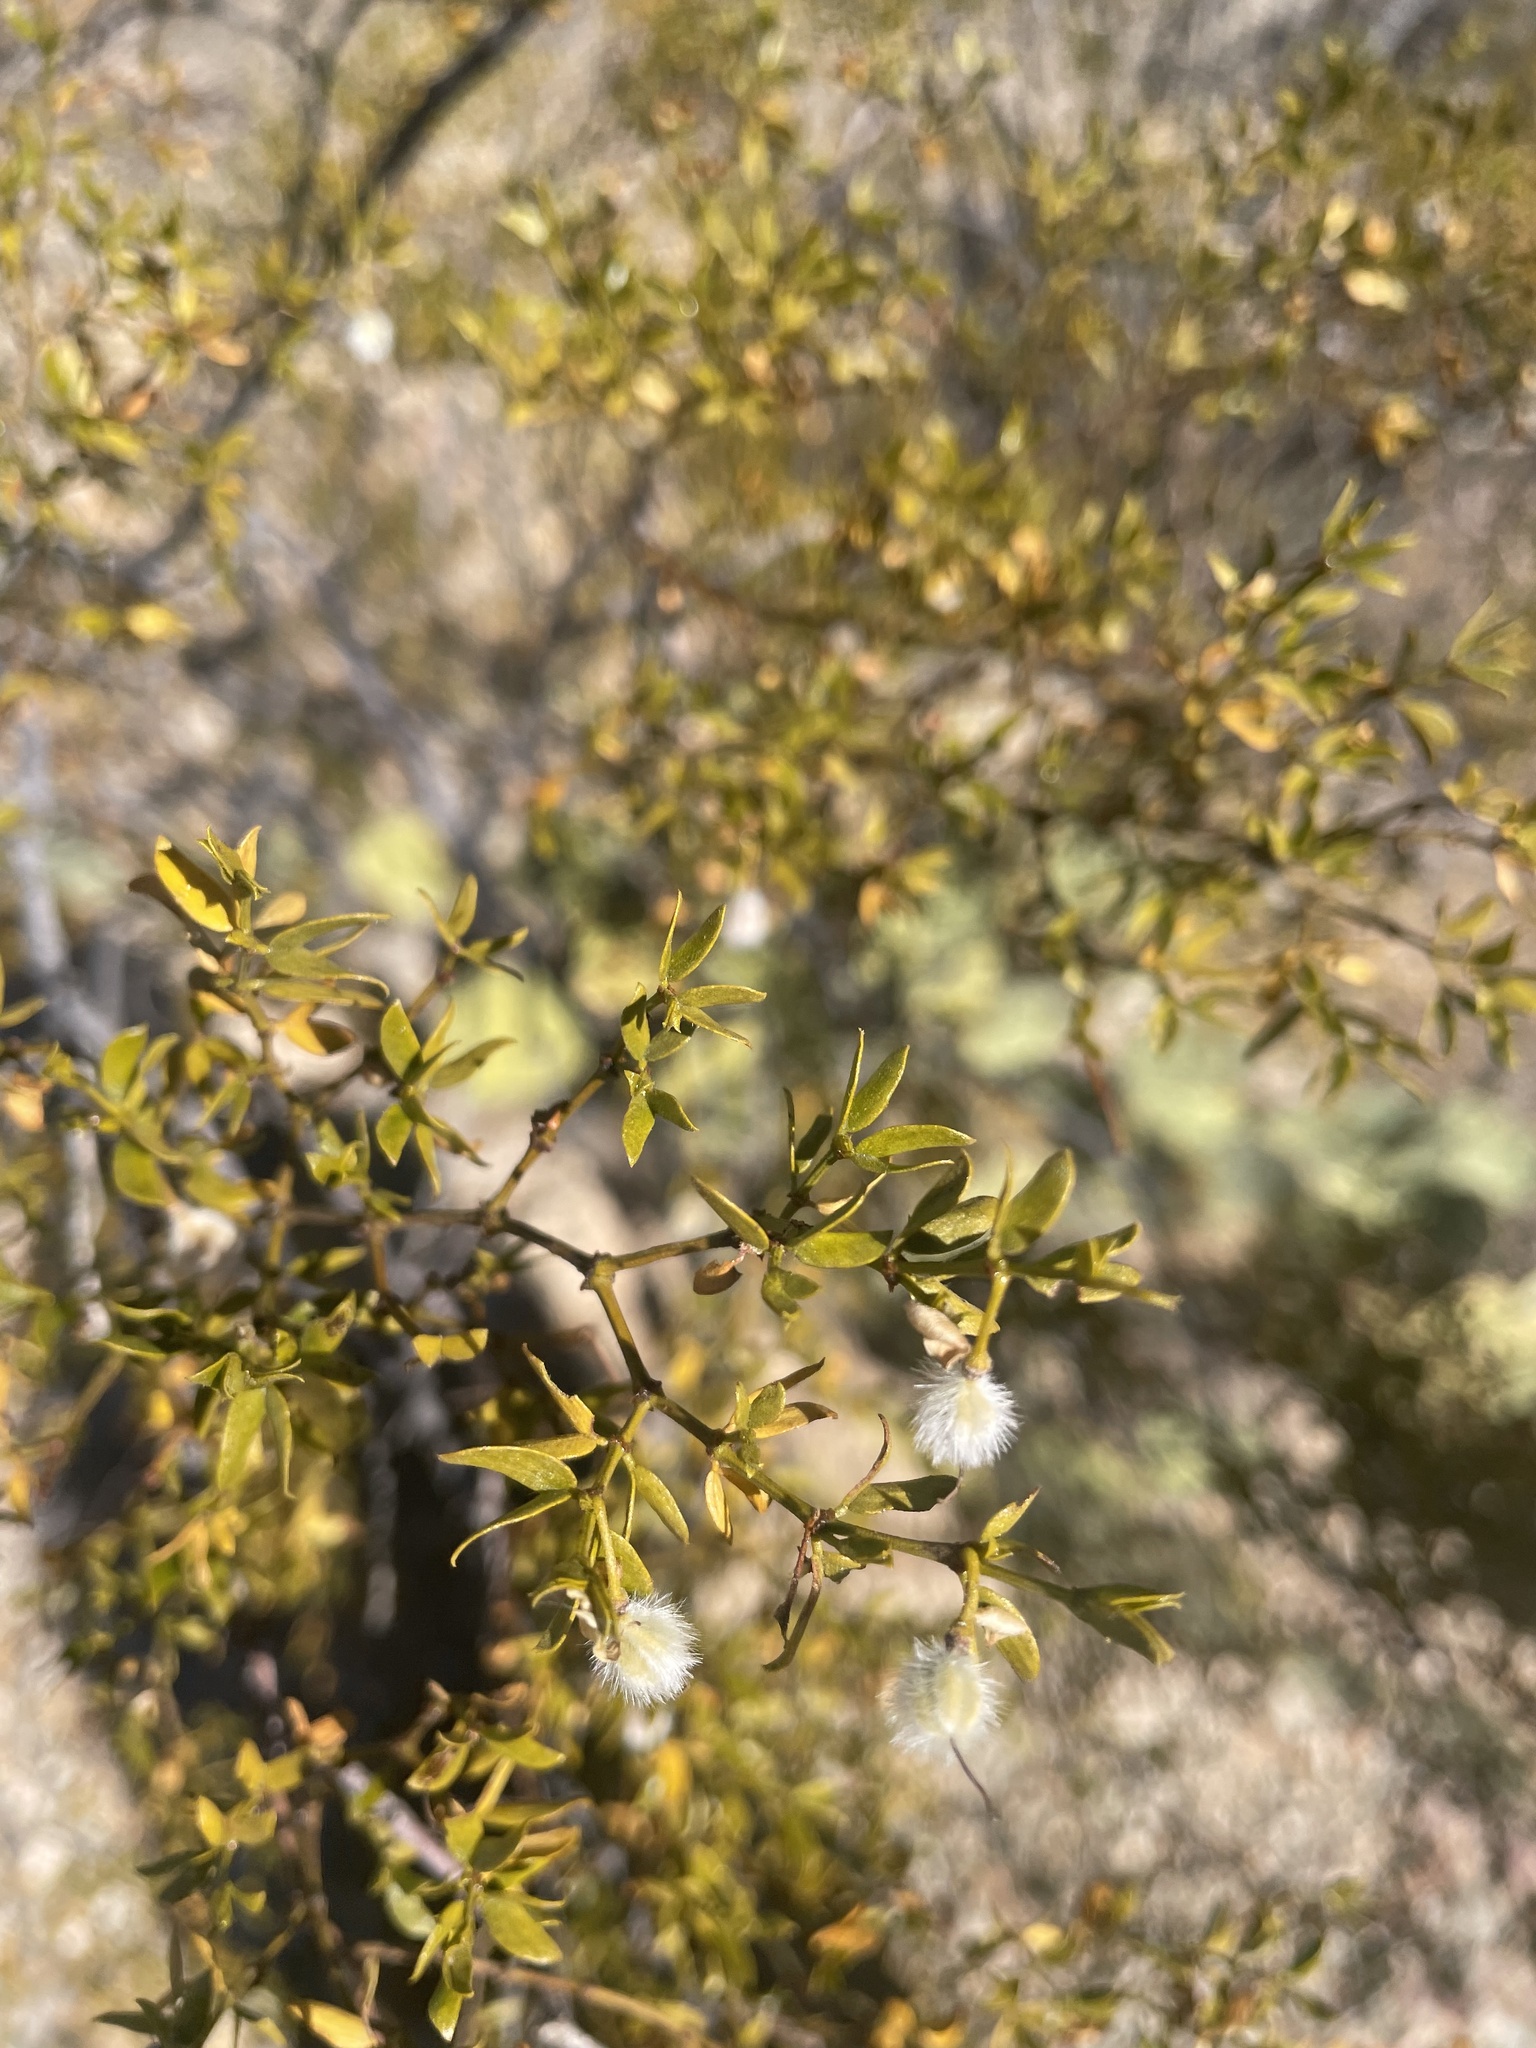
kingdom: Plantae
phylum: Tracheophyta
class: Magnoliopsida
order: Zygophyllales
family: Zygophyllaceae
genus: Larrea
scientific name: Larrea tridentata
